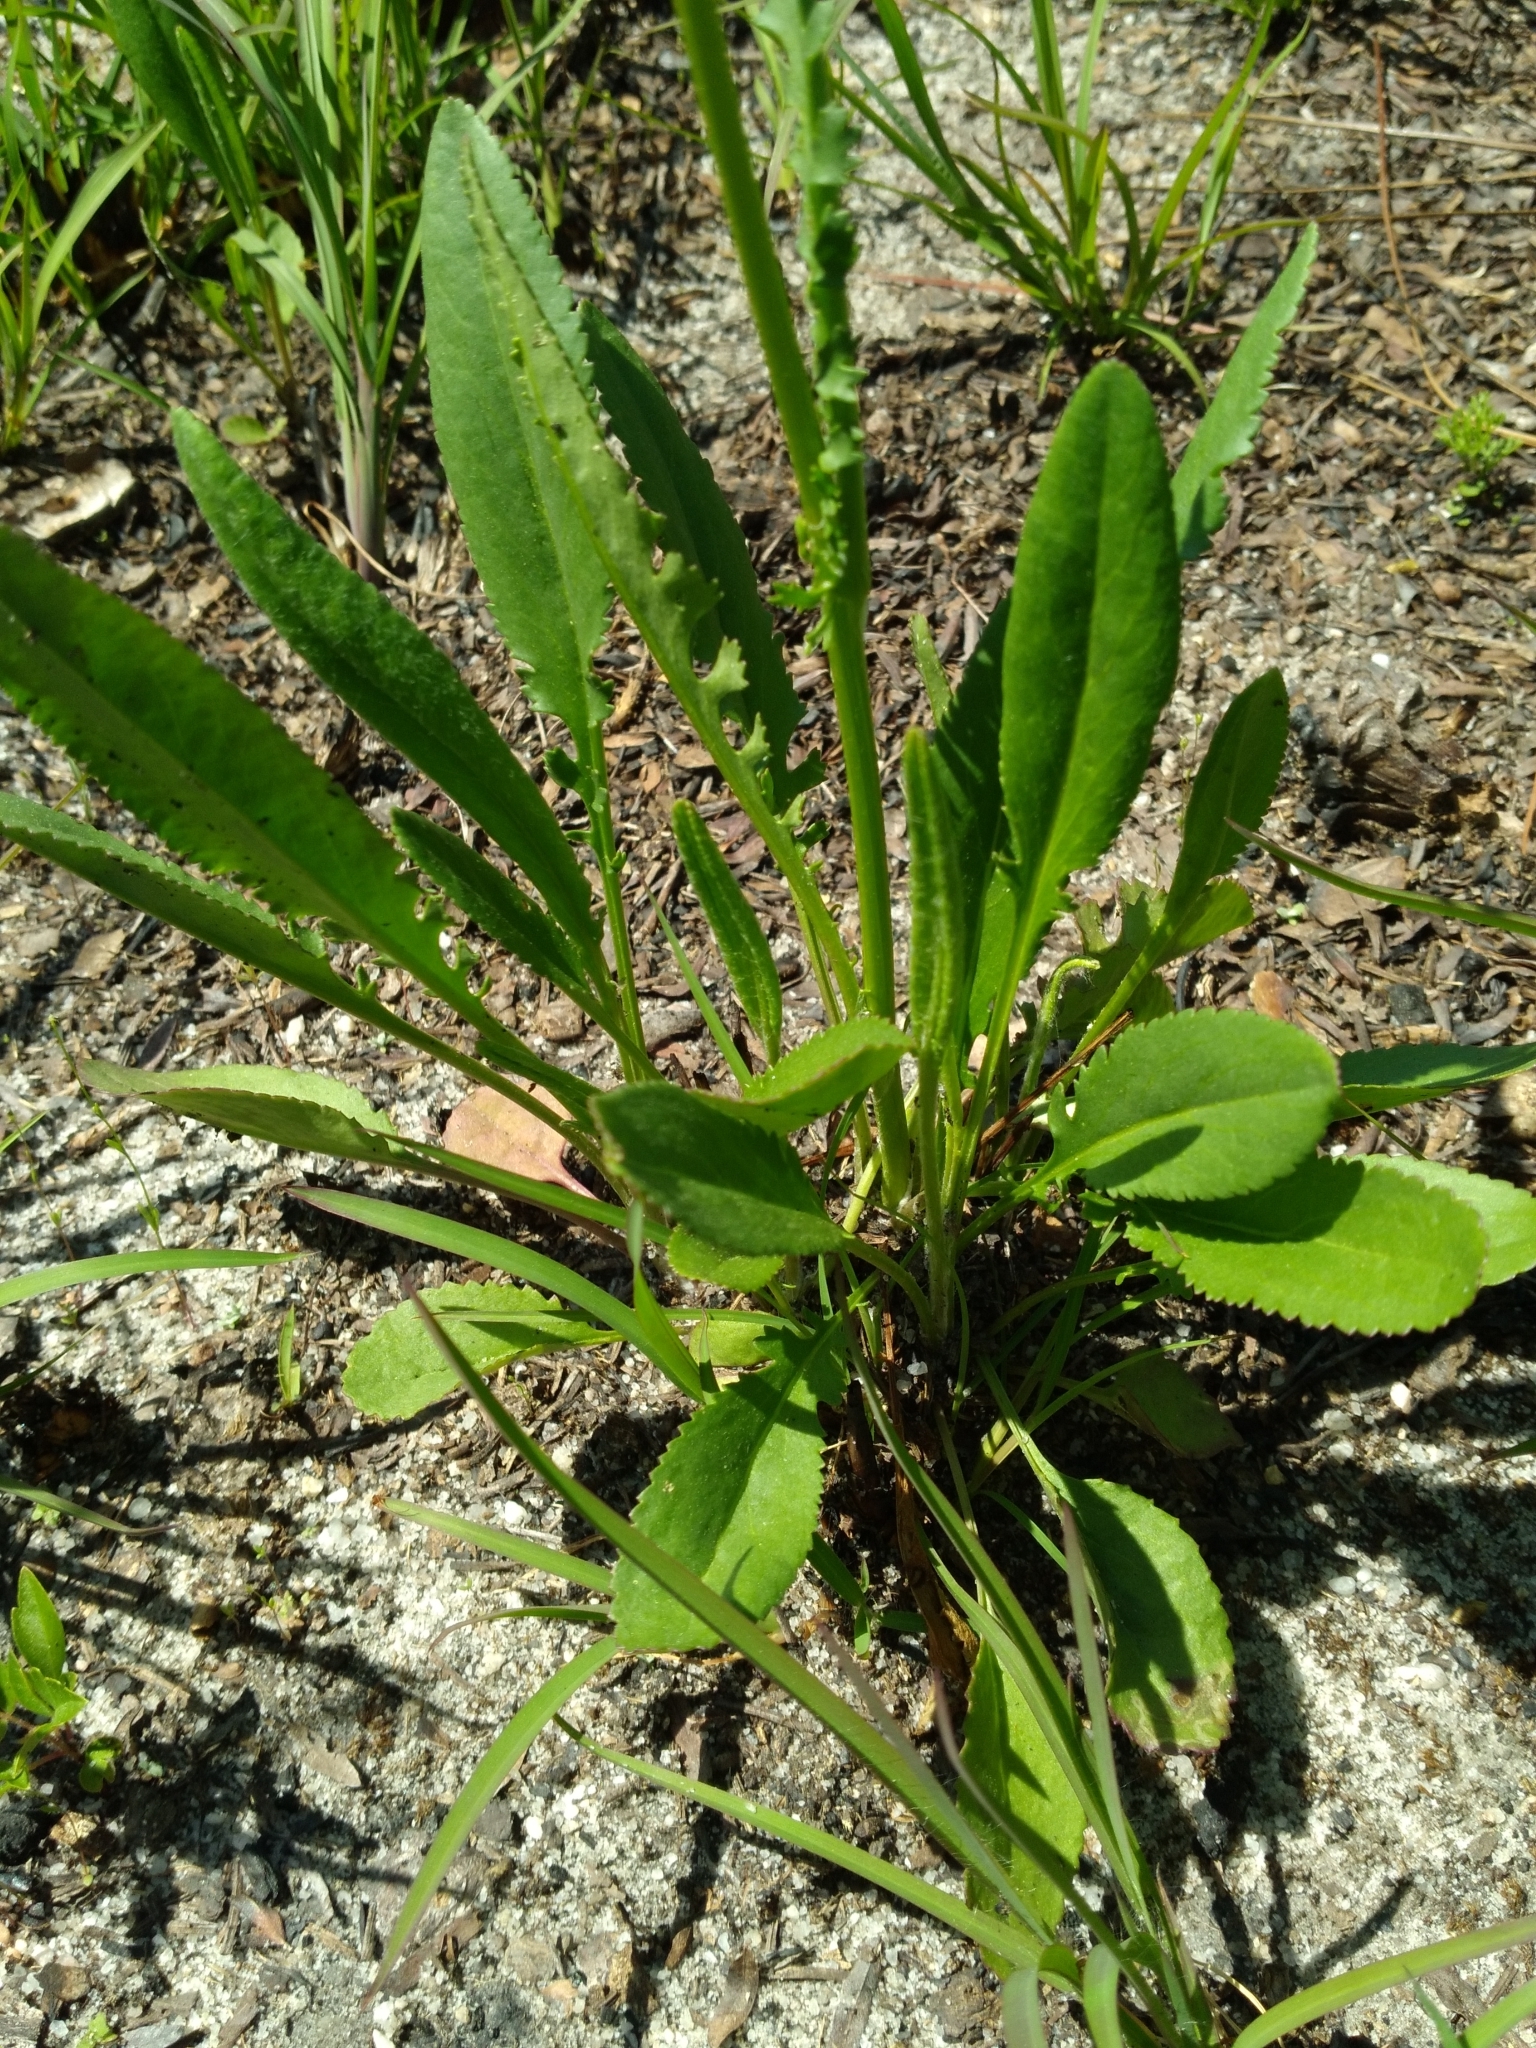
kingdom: Plantae
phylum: Tracheophyta
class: Magnoliopsida
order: Asterales
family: Asteraceae
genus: Packera
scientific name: Packera anonyma
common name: Small ragwort
